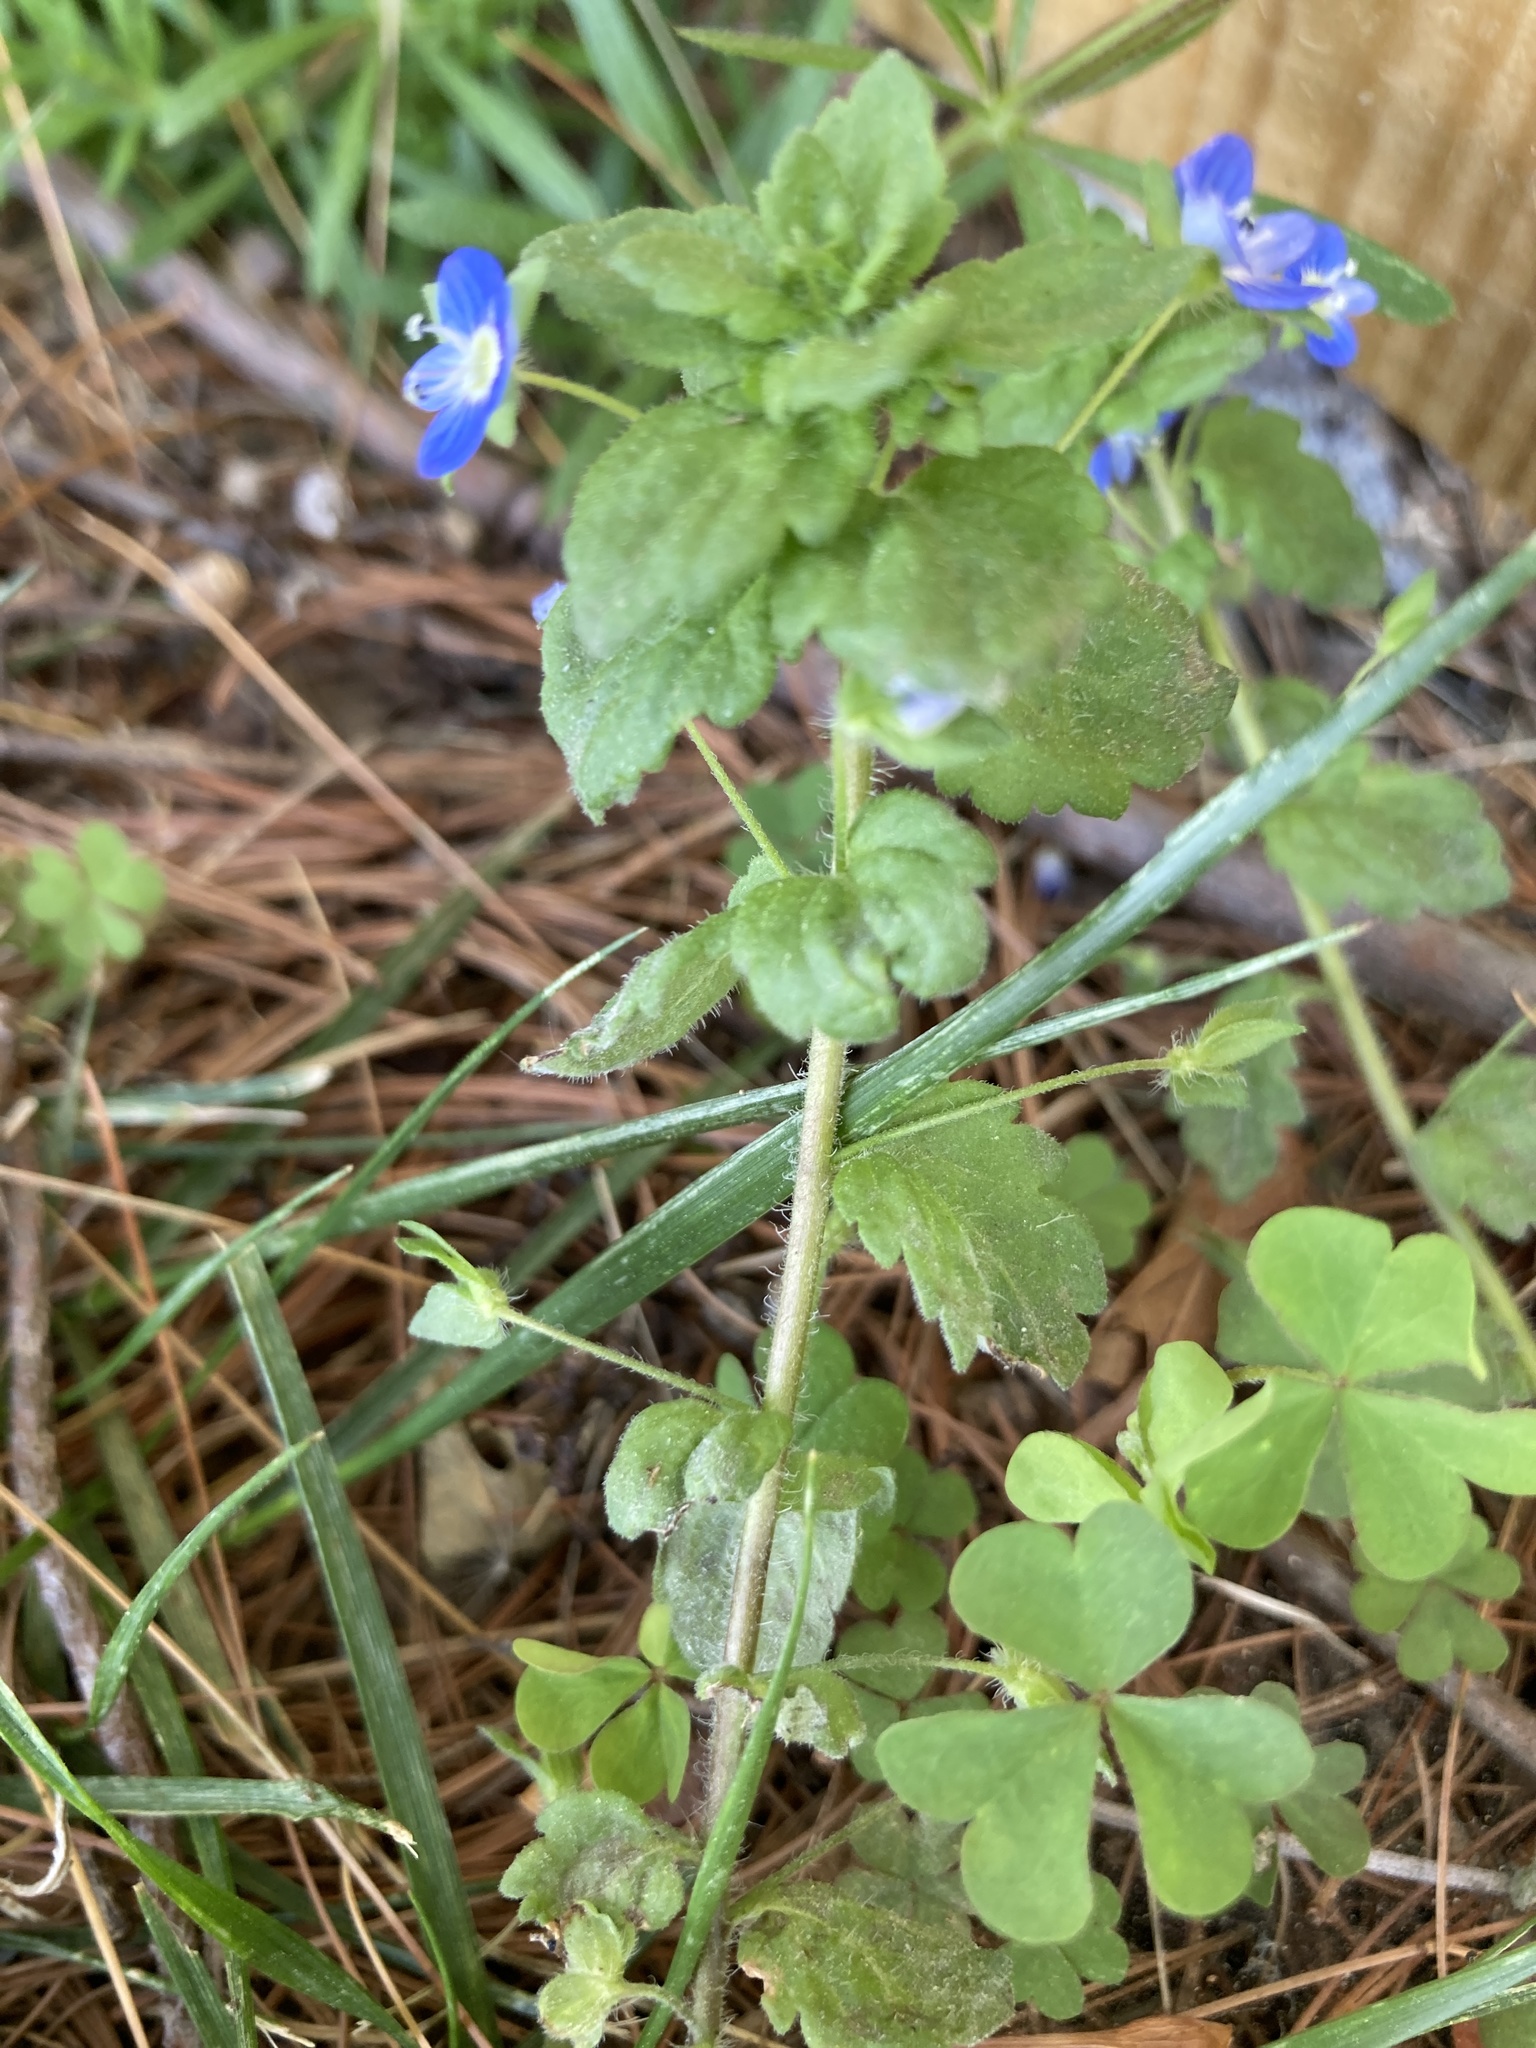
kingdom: Plantae
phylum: Tracheophyta
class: Magnoliopsida
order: Lamiales
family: Plantaginaceae
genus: Veronica
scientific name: Veronica persica
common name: Common field-speedwell
